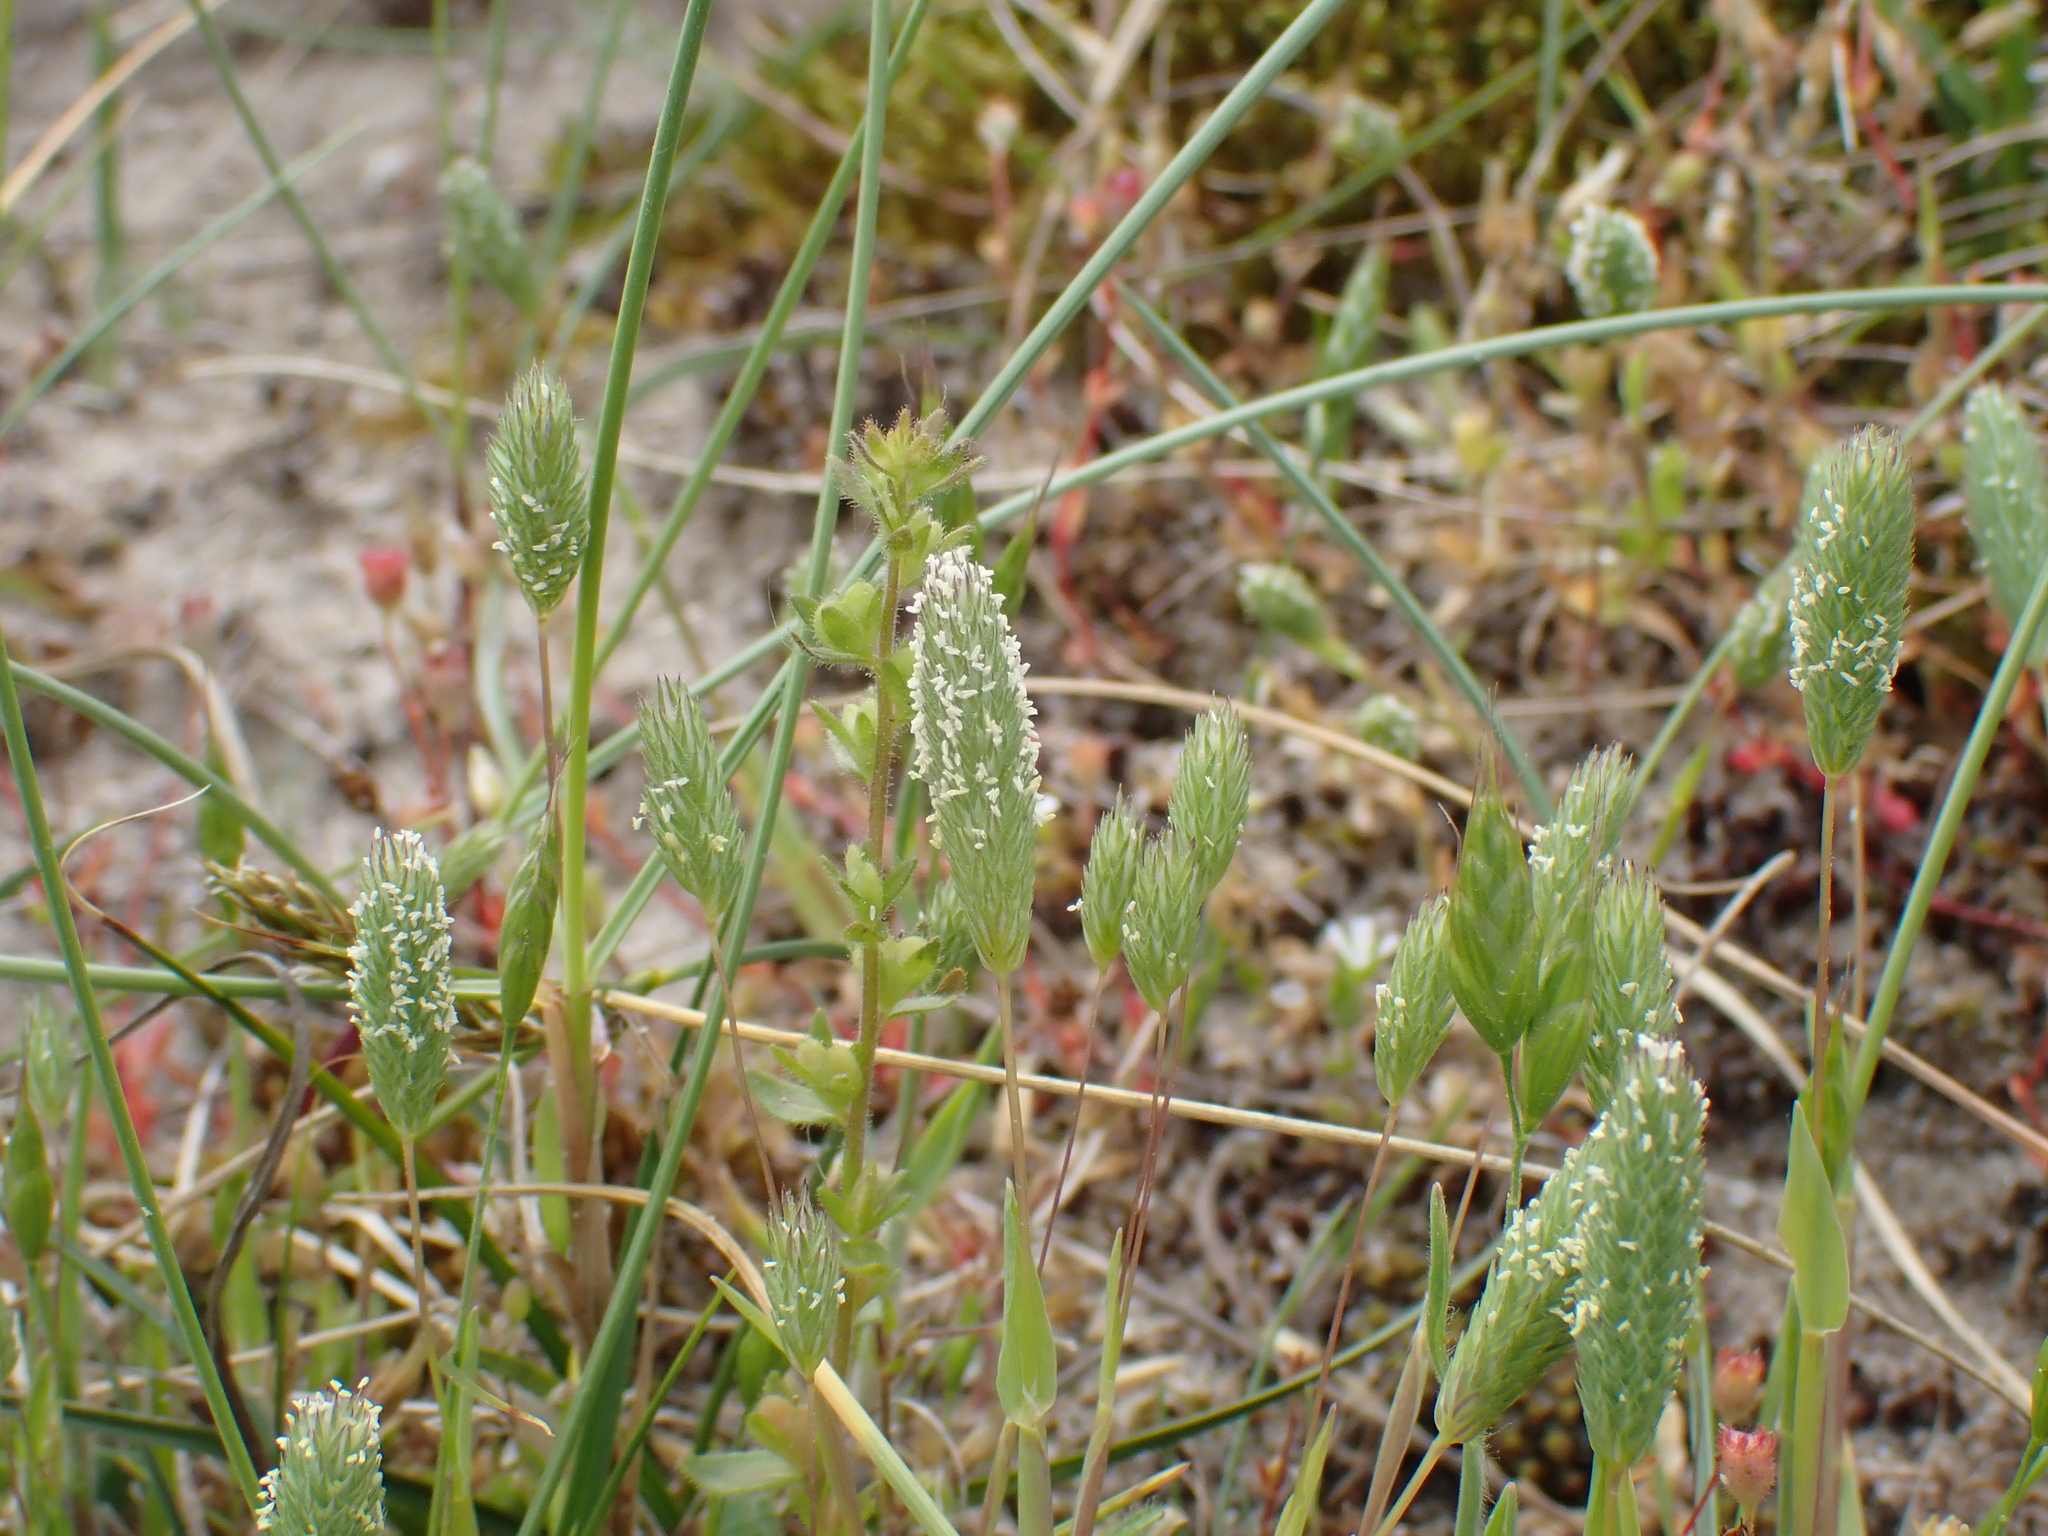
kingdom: Plantae
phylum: Tracheophyta
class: Liliopsida
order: Poales
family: Poaceae
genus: Phleum
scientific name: Phleum arenarium
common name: Sand cat's-tail
